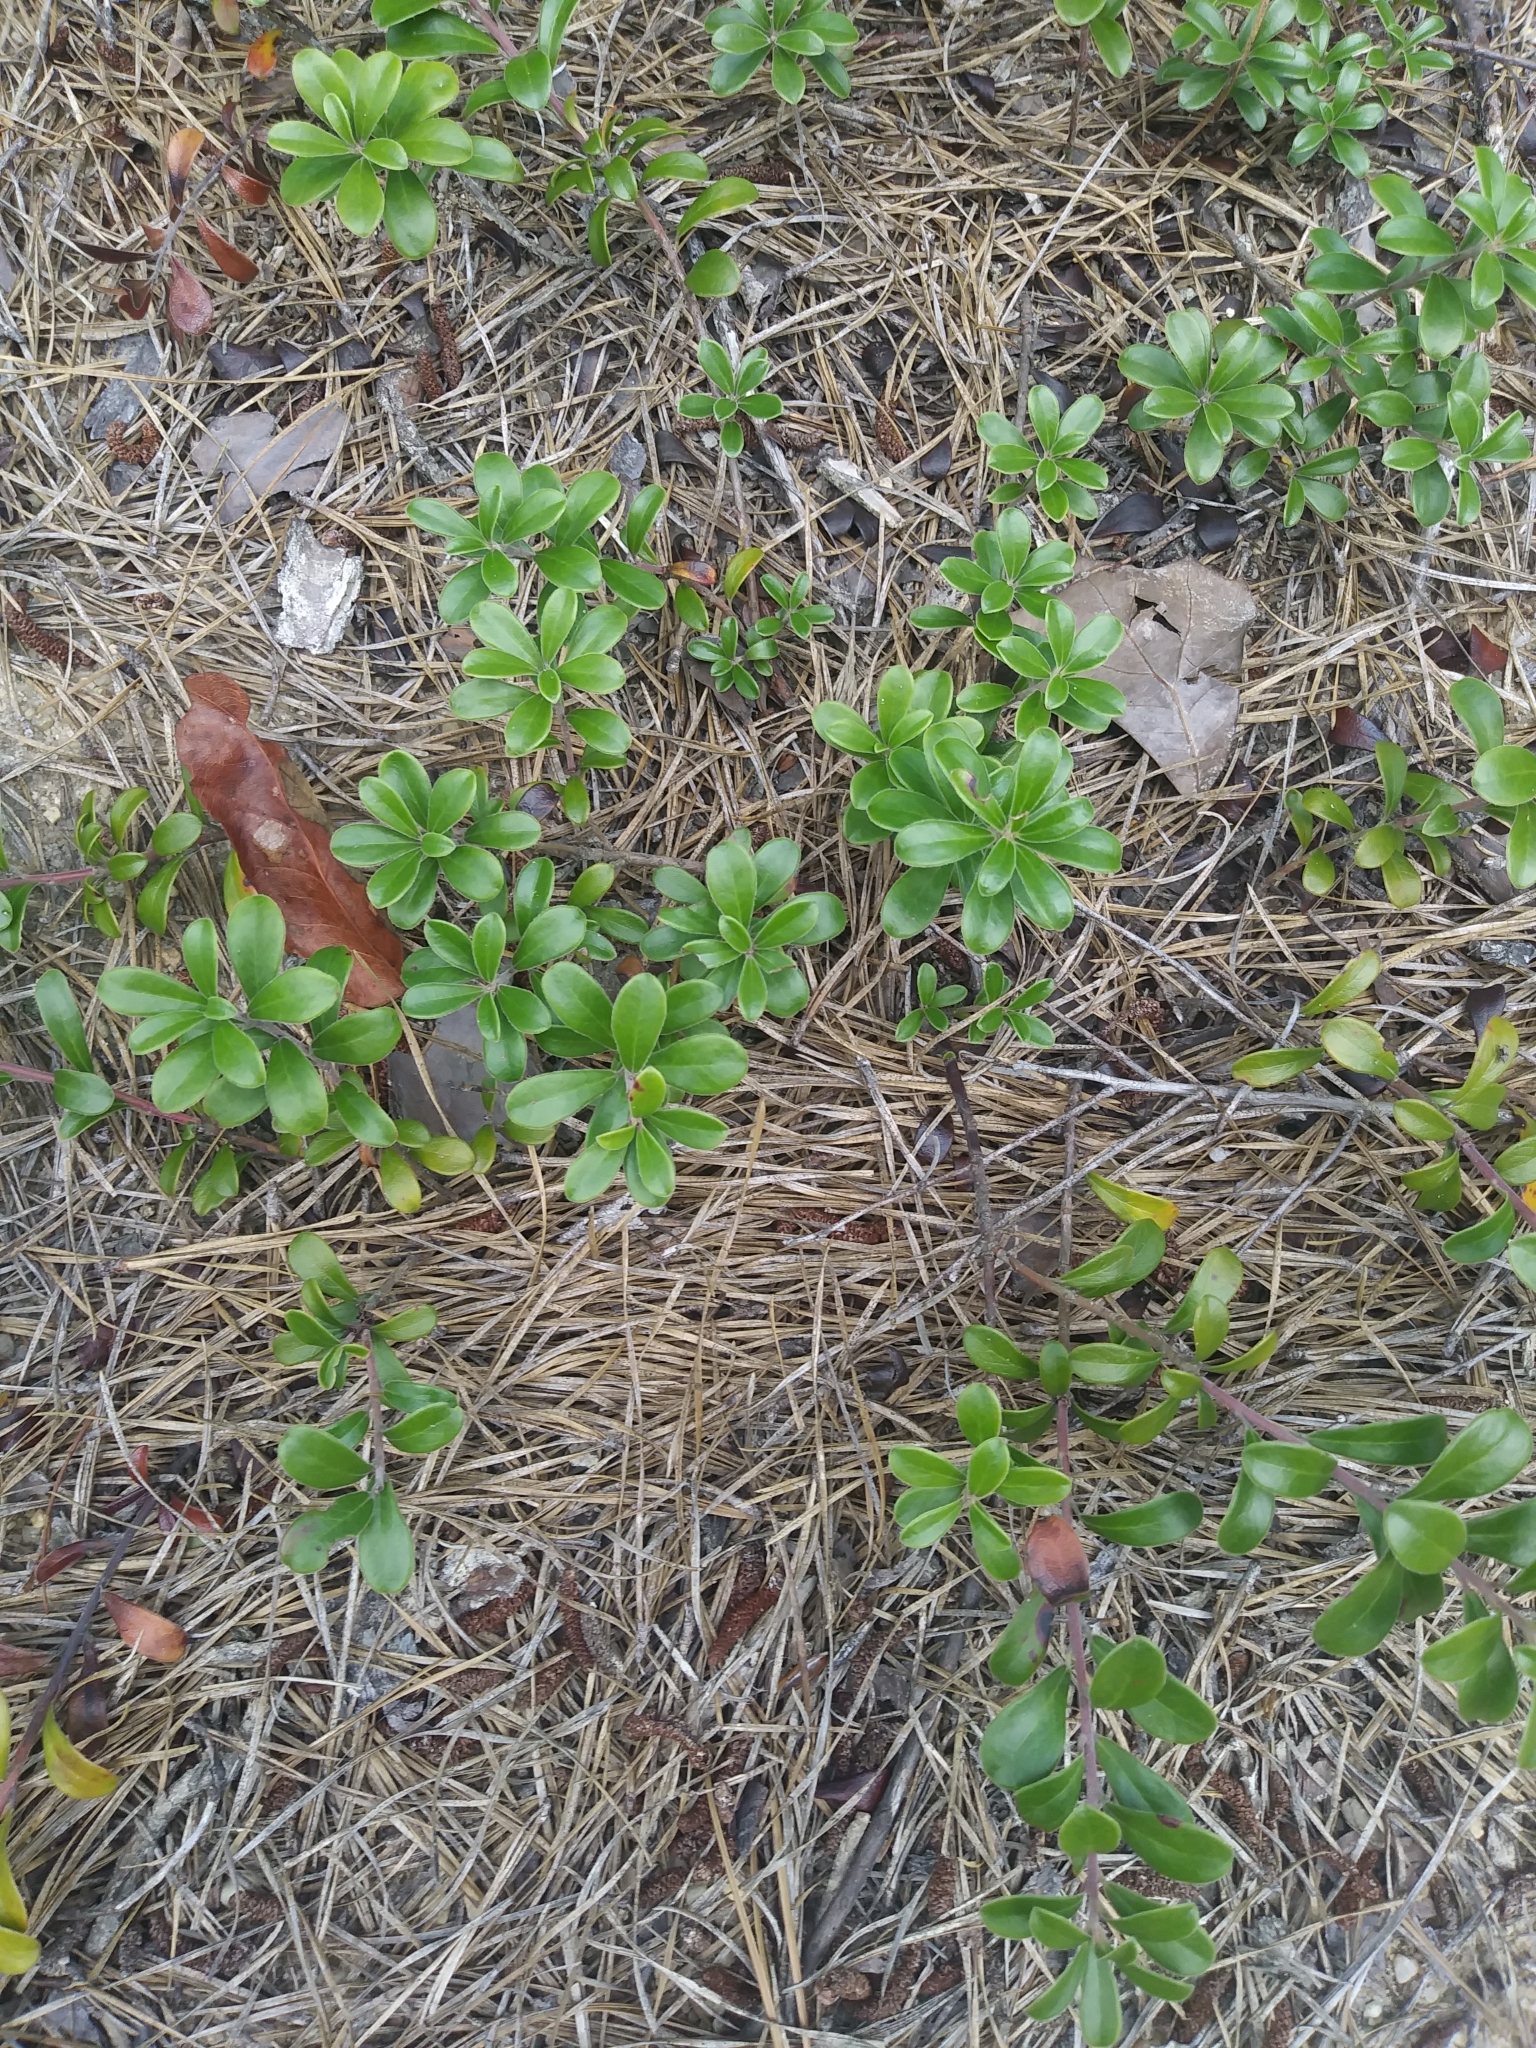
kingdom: Plantae
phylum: Tracheophyta
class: Magnoliopsida
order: Ericales
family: Ericaceae
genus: Arctostaphylos
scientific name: Arctostaphylos uva-ursi
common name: Bearberry
